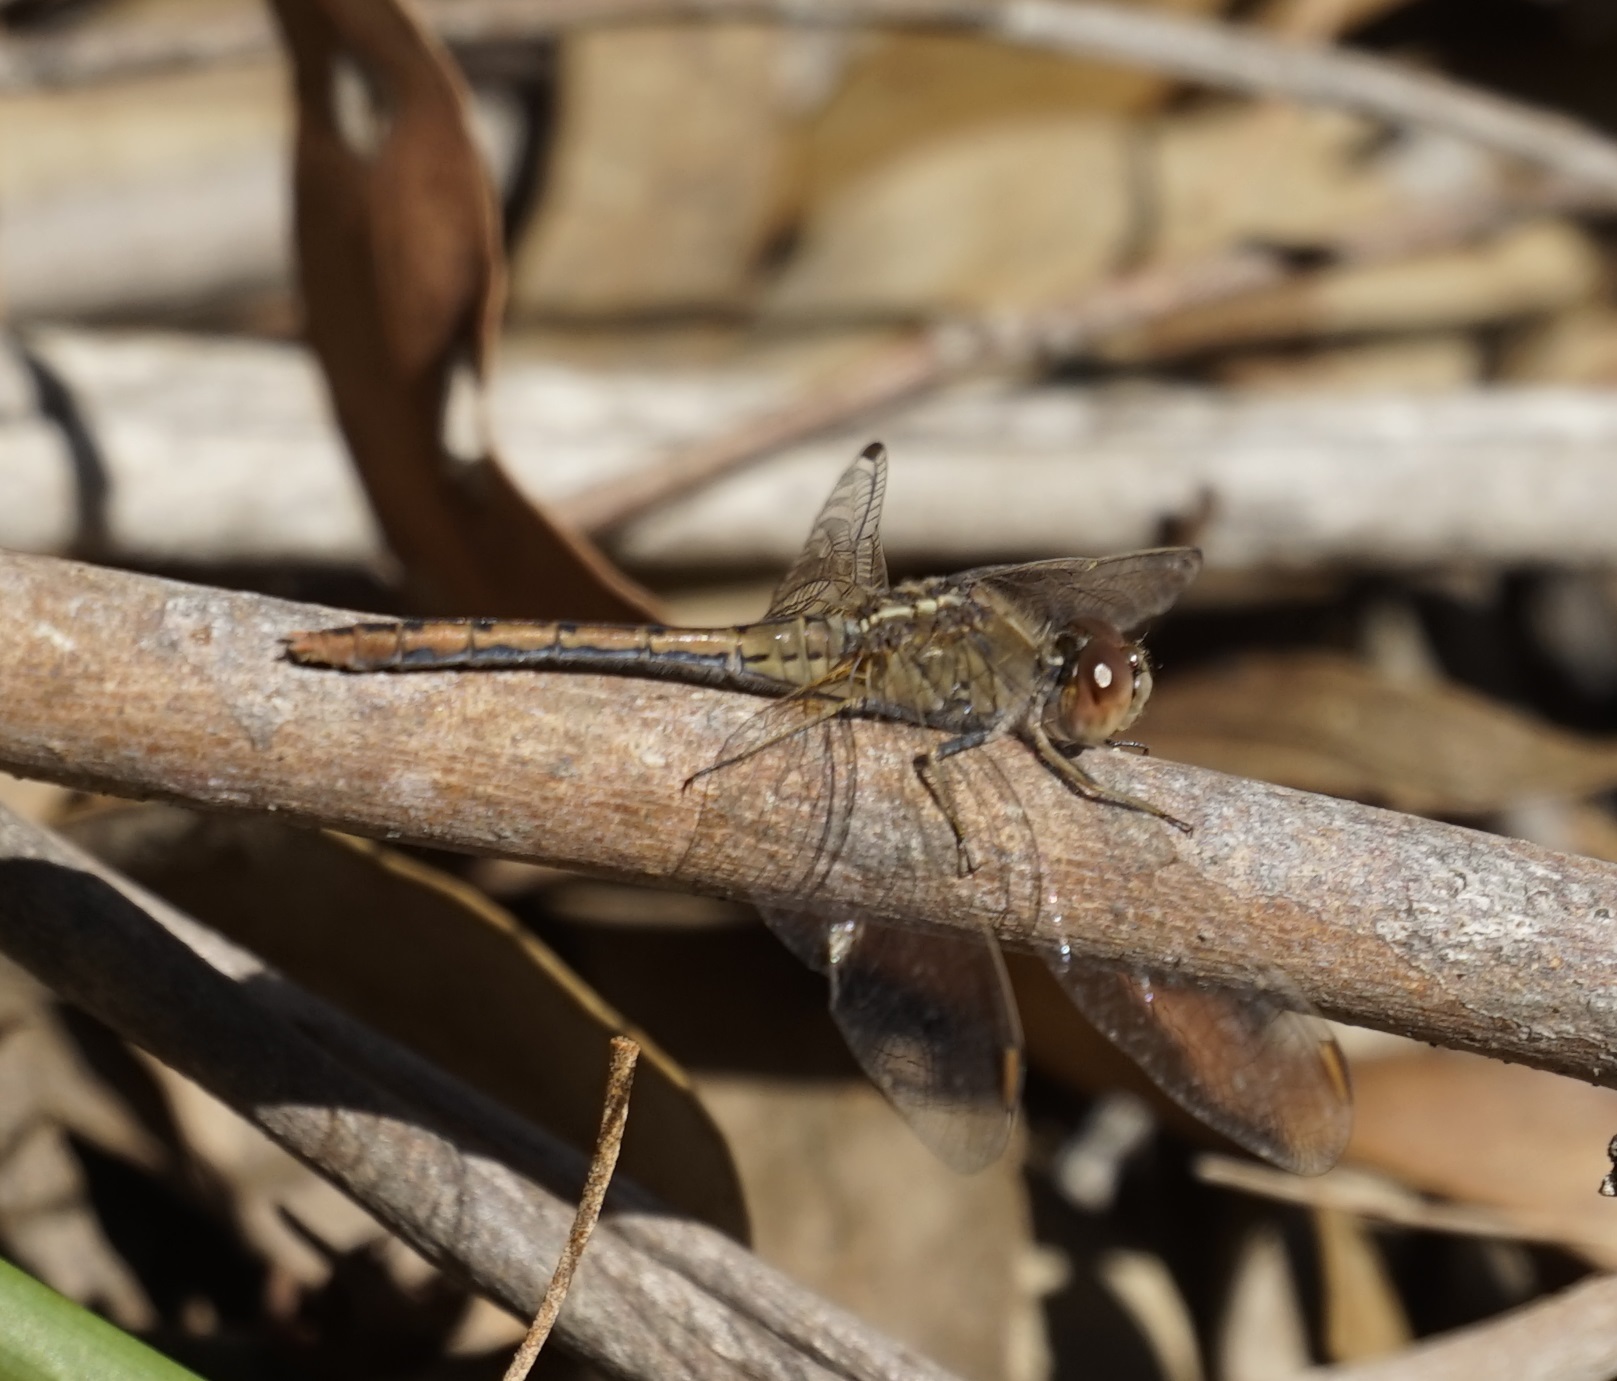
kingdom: Animalia
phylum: Arthropoda
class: Insecta
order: Odonata
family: Libellulidae
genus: Diplacodes
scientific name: Diplacodes bipunctata
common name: Red percher dragonfly
